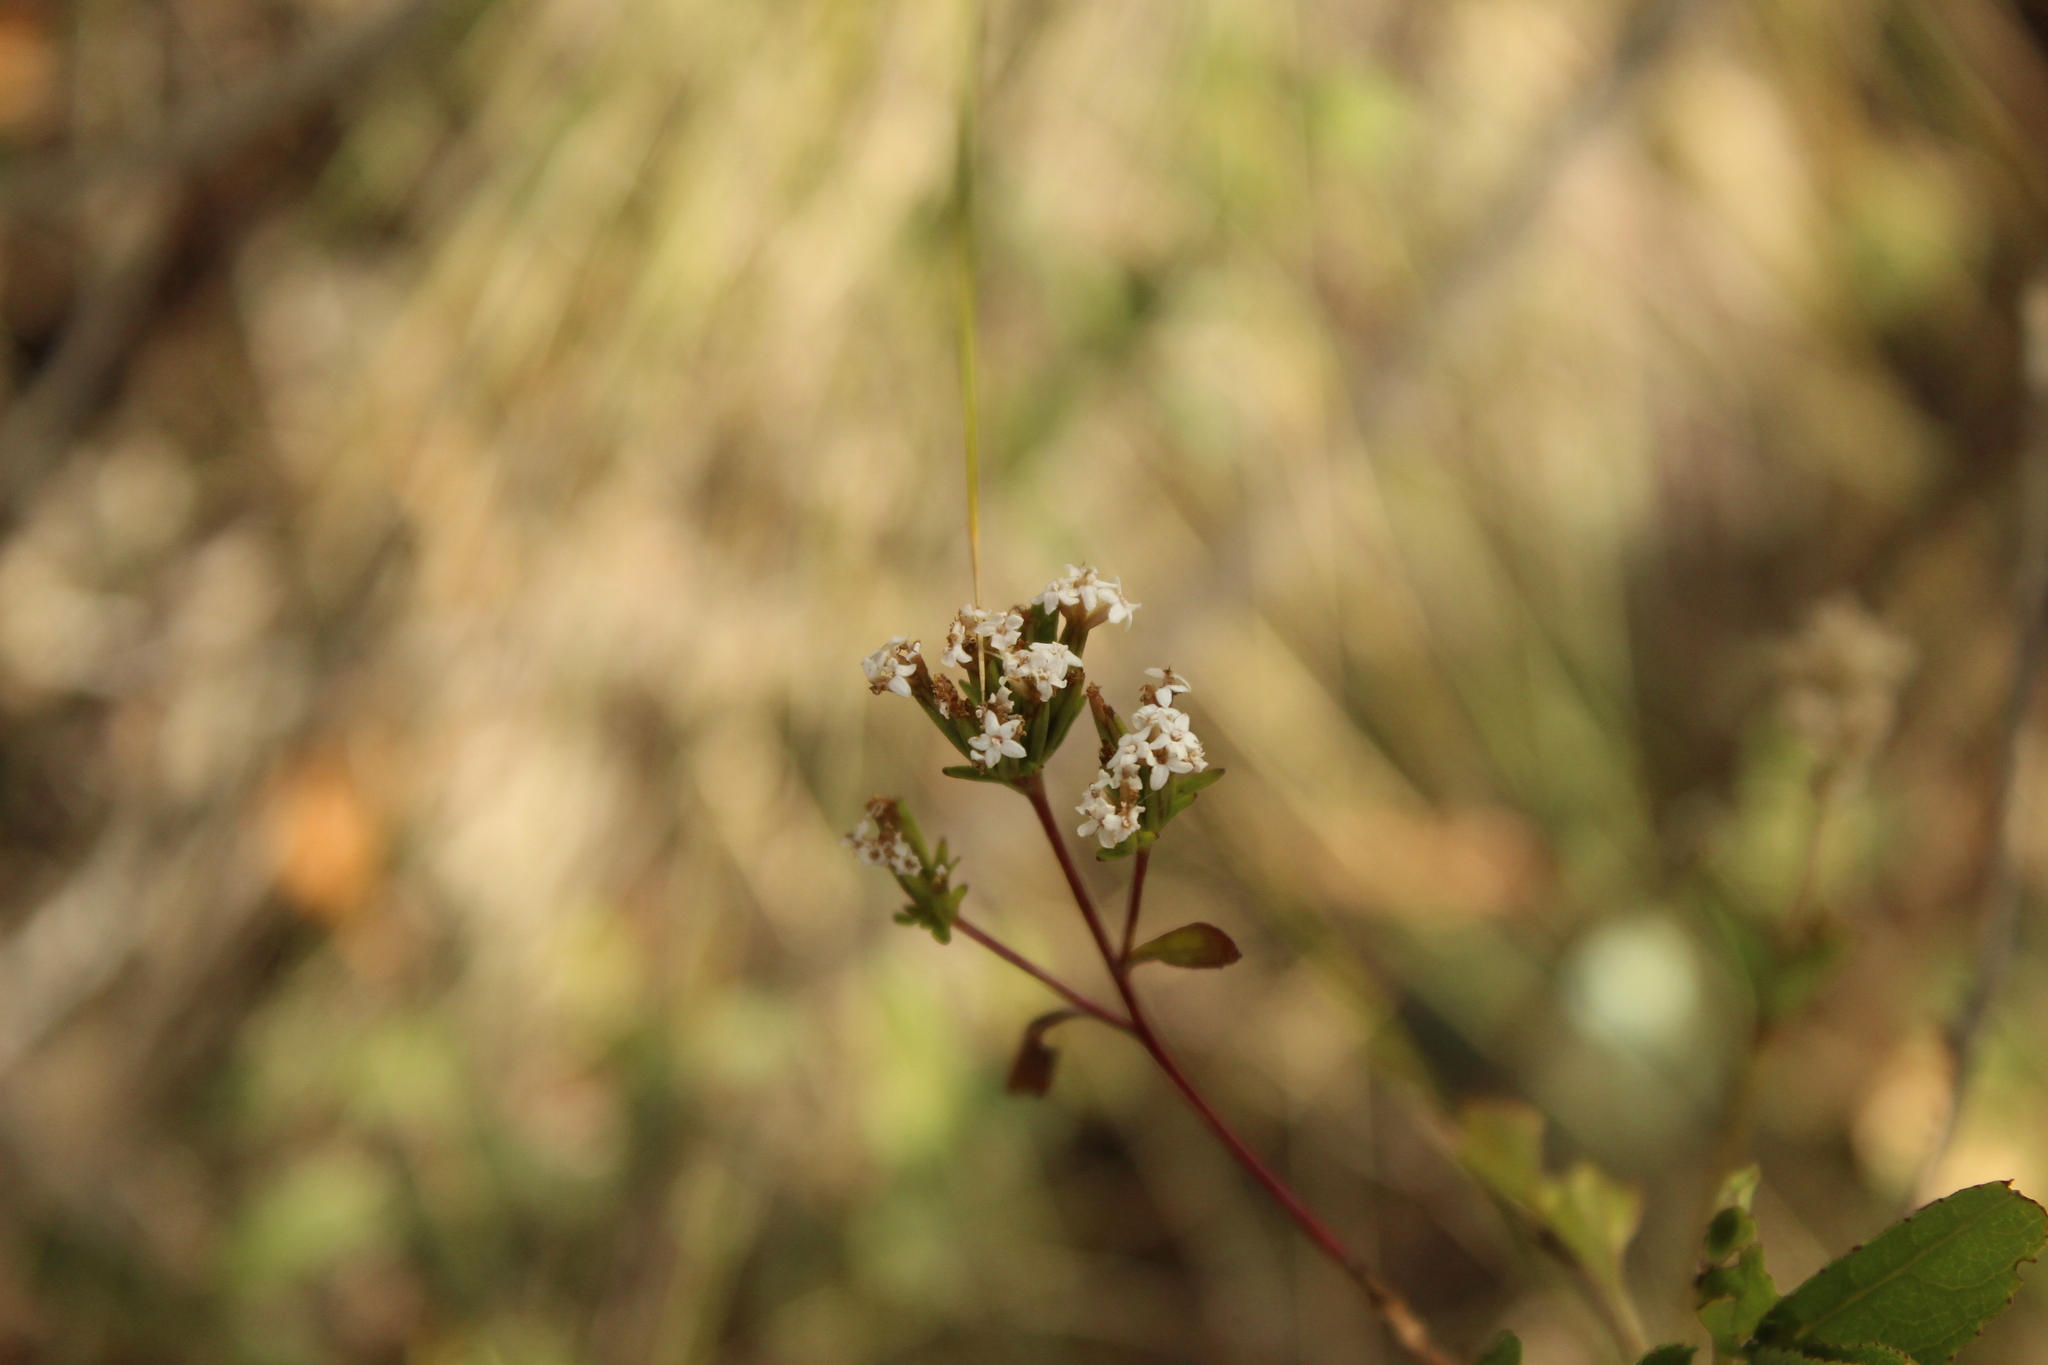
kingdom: Plantae
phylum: Tracheophyta
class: Magnoliopsida
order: Asterales
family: Asteraceae
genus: Stevia
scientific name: Stevia lucida
